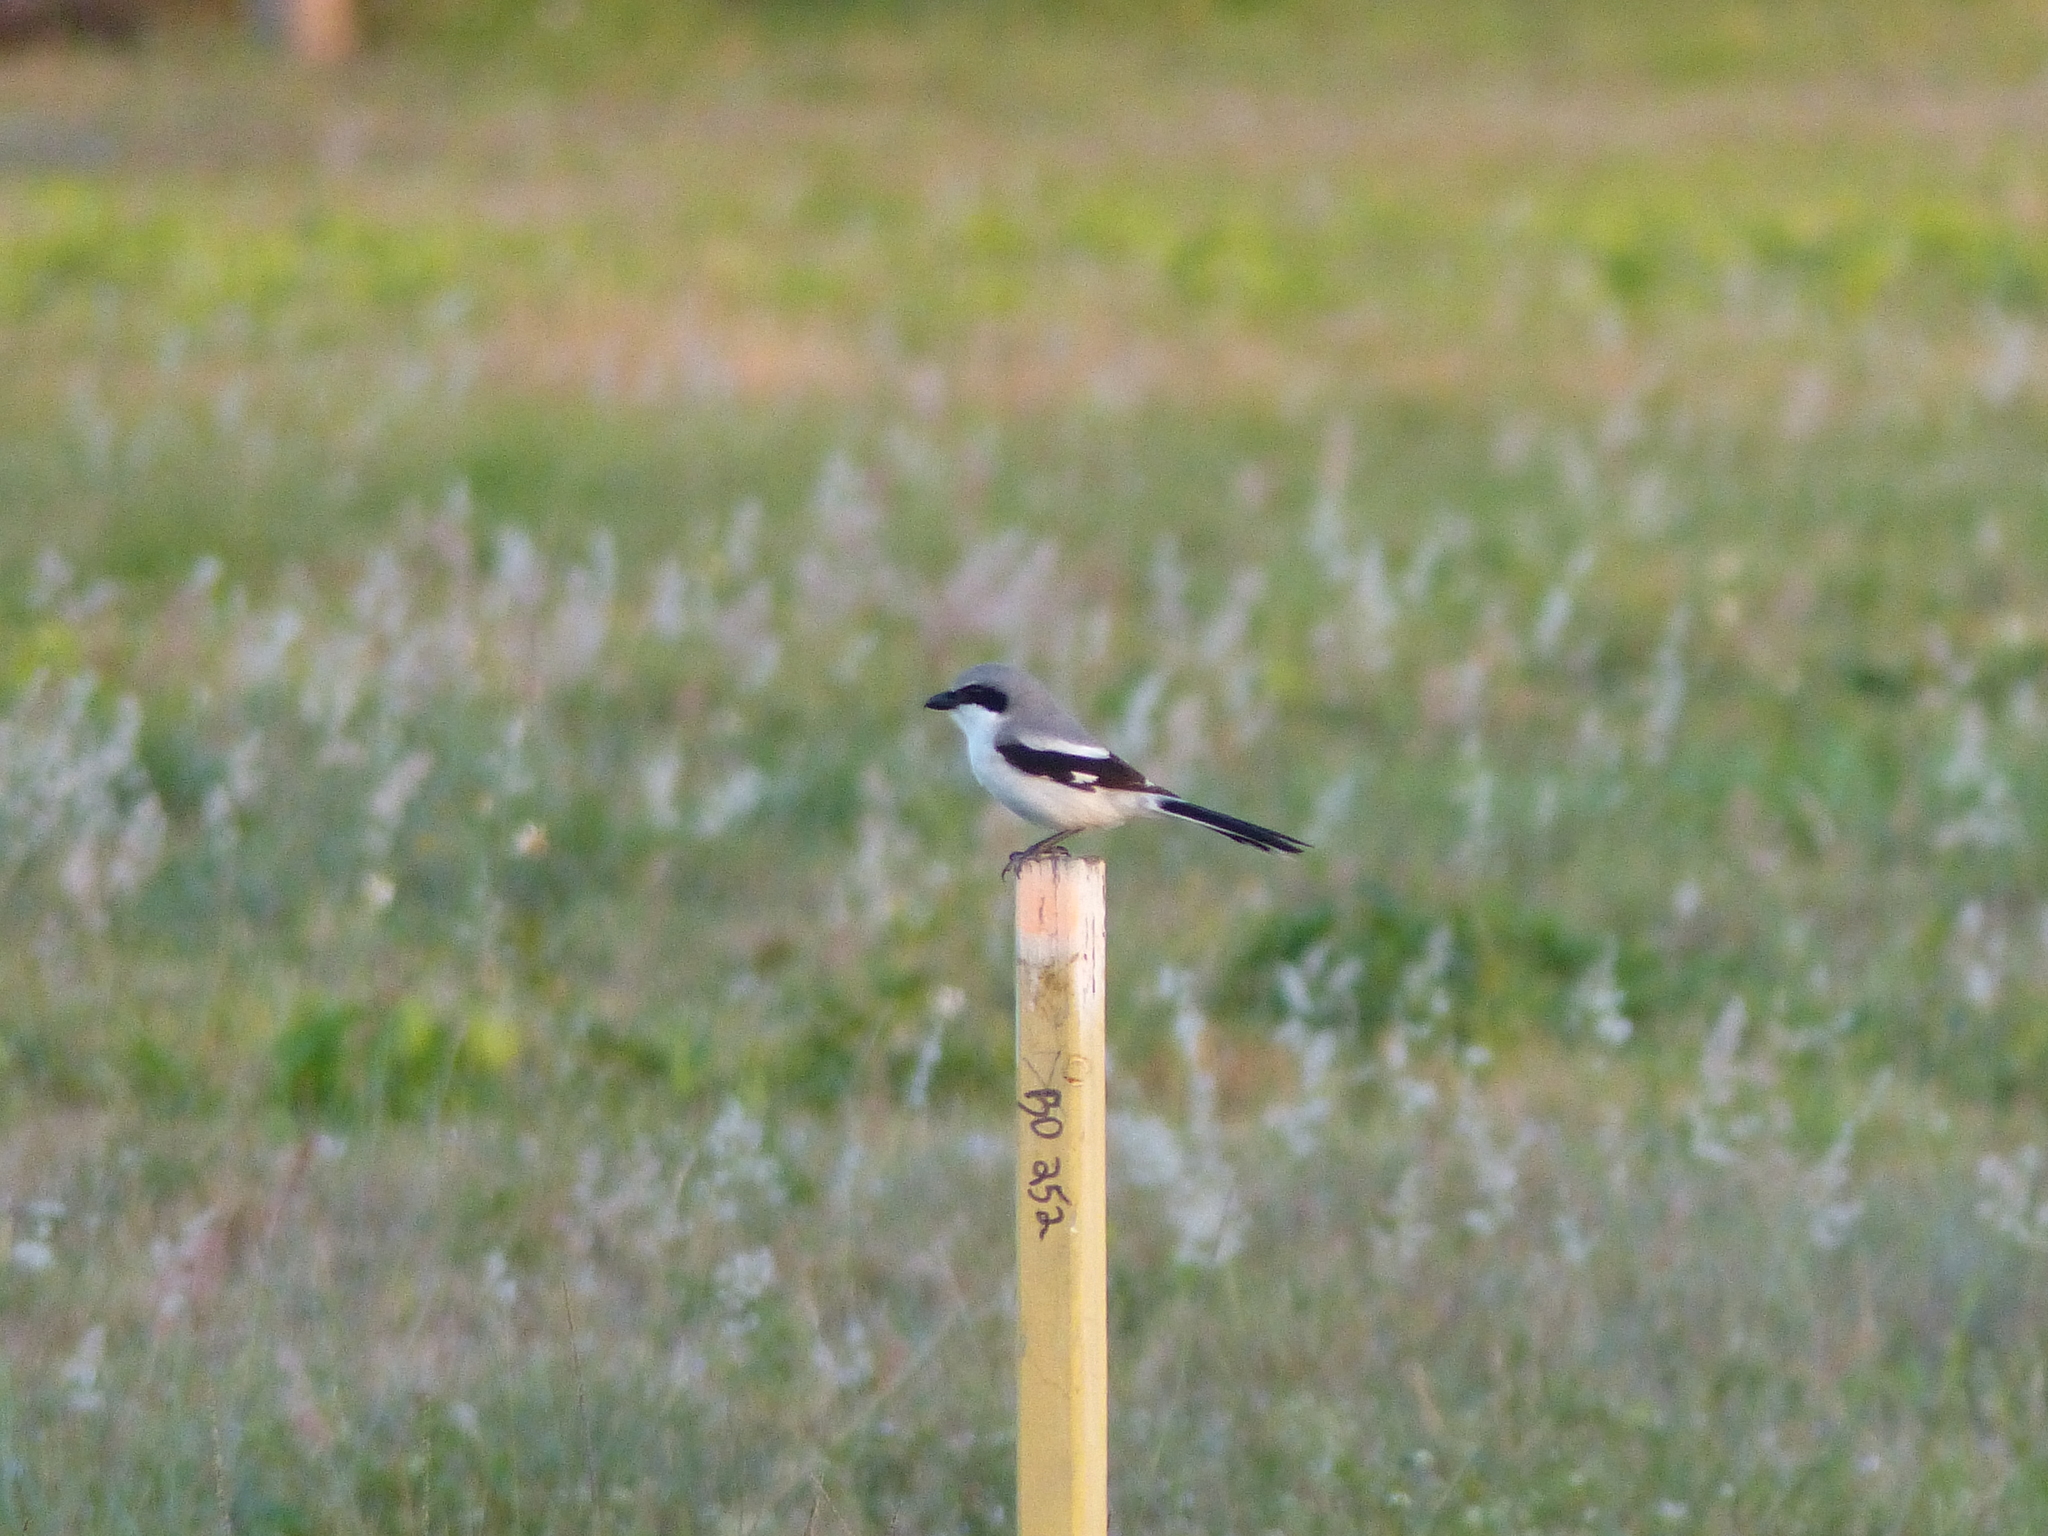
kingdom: Animalia
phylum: Chordata
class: Aves
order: Passeriformes
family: Laniidae
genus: Lanius
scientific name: Lanius ludovicianus
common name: Loggerhead shrike
